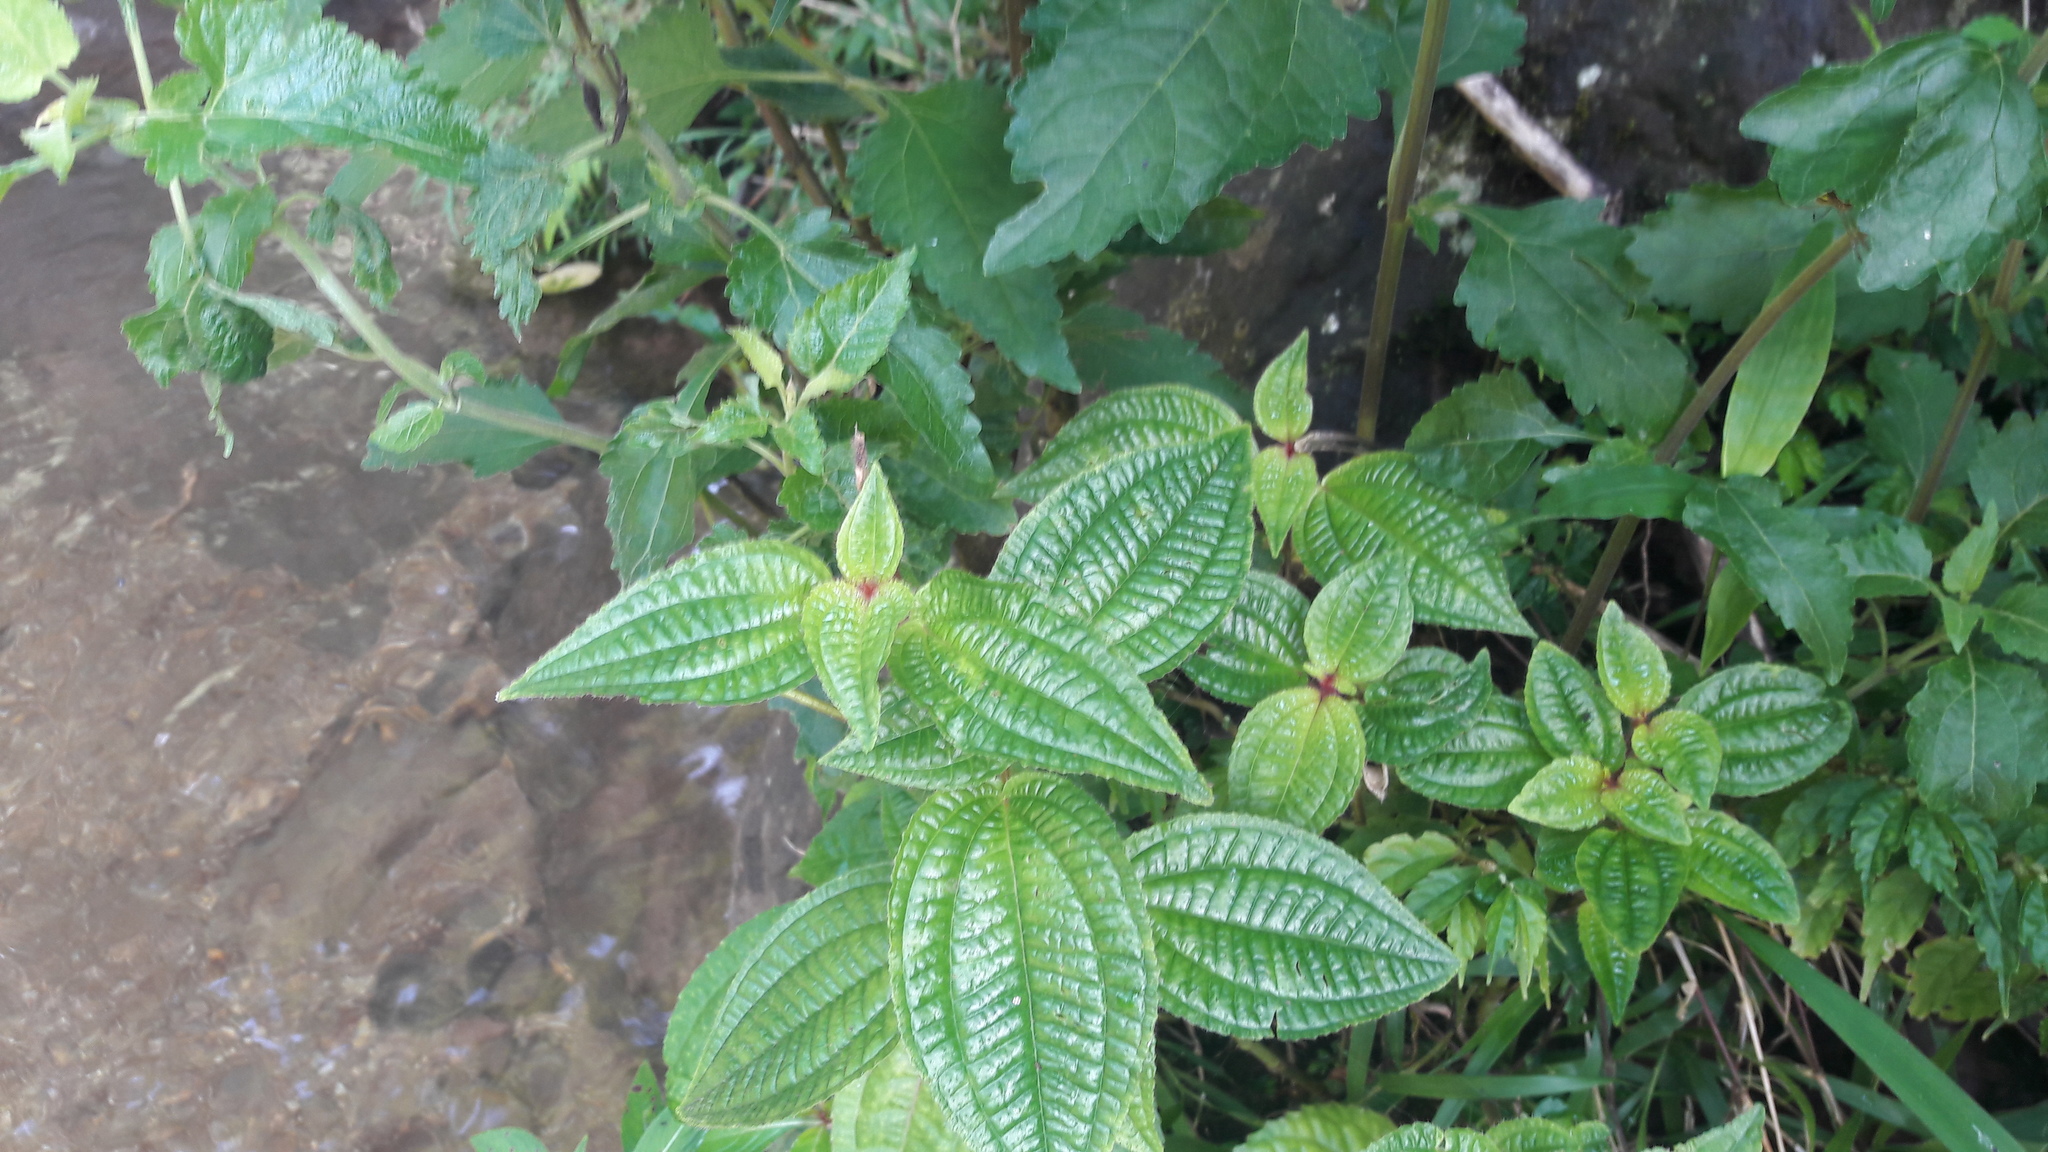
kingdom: Plantae
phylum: Tracheophyta
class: Magnoliopsida
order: Myrtales
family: Melastomataceae
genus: Miconia
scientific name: Miconia crenata
